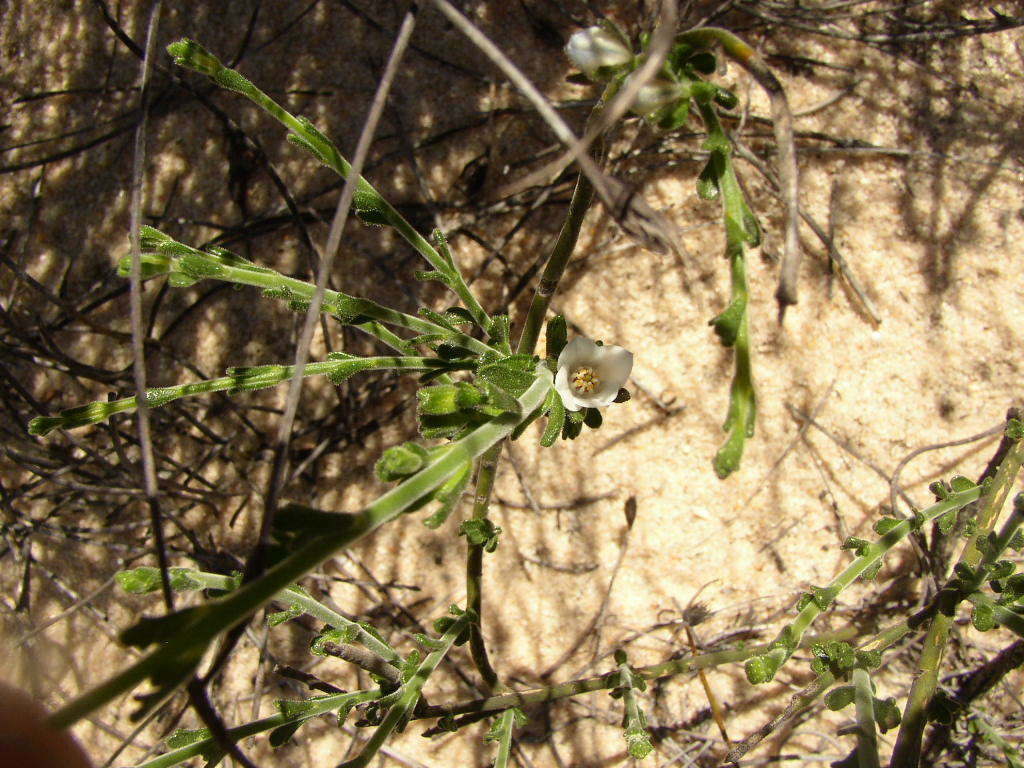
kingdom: Plantae
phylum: Tracheophyta
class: Magnoliopsida
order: Sapindales
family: Rutaceae
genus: Cyanothamnus
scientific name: Cyanothamnus coerulescens
